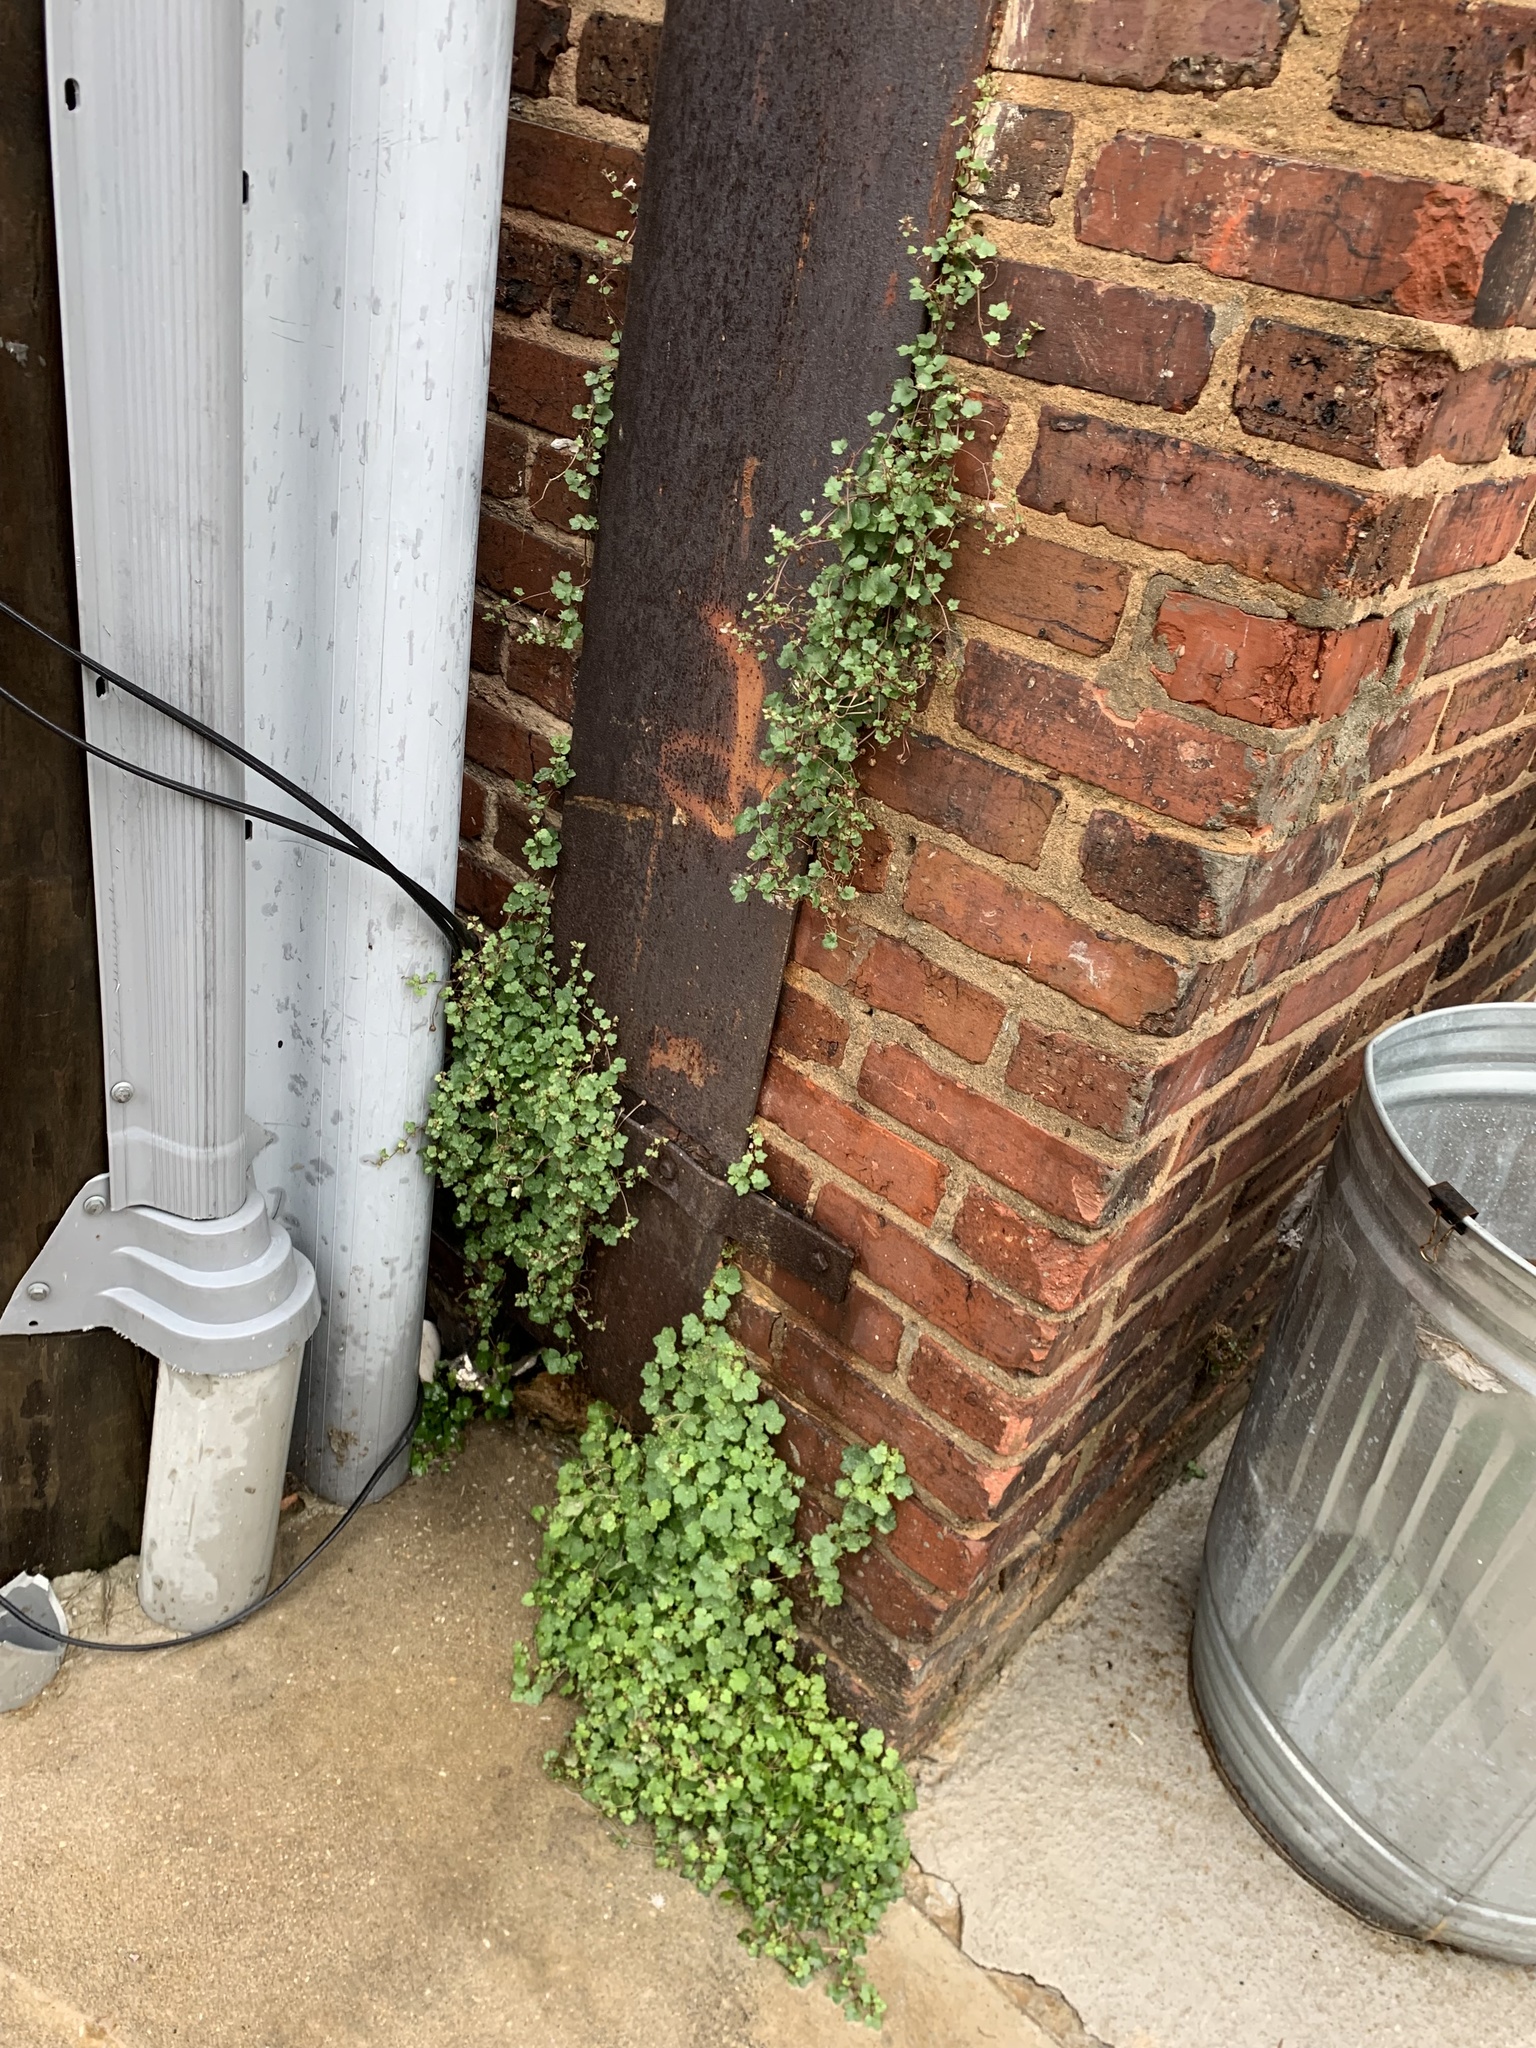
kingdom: Plantae
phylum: Tracheophyta
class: Magnoliopsida
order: Lamiales
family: Plantaginaceae
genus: Cymbalaria
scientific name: Cymbalaria muralis
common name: Ivy-leaved toadflax
